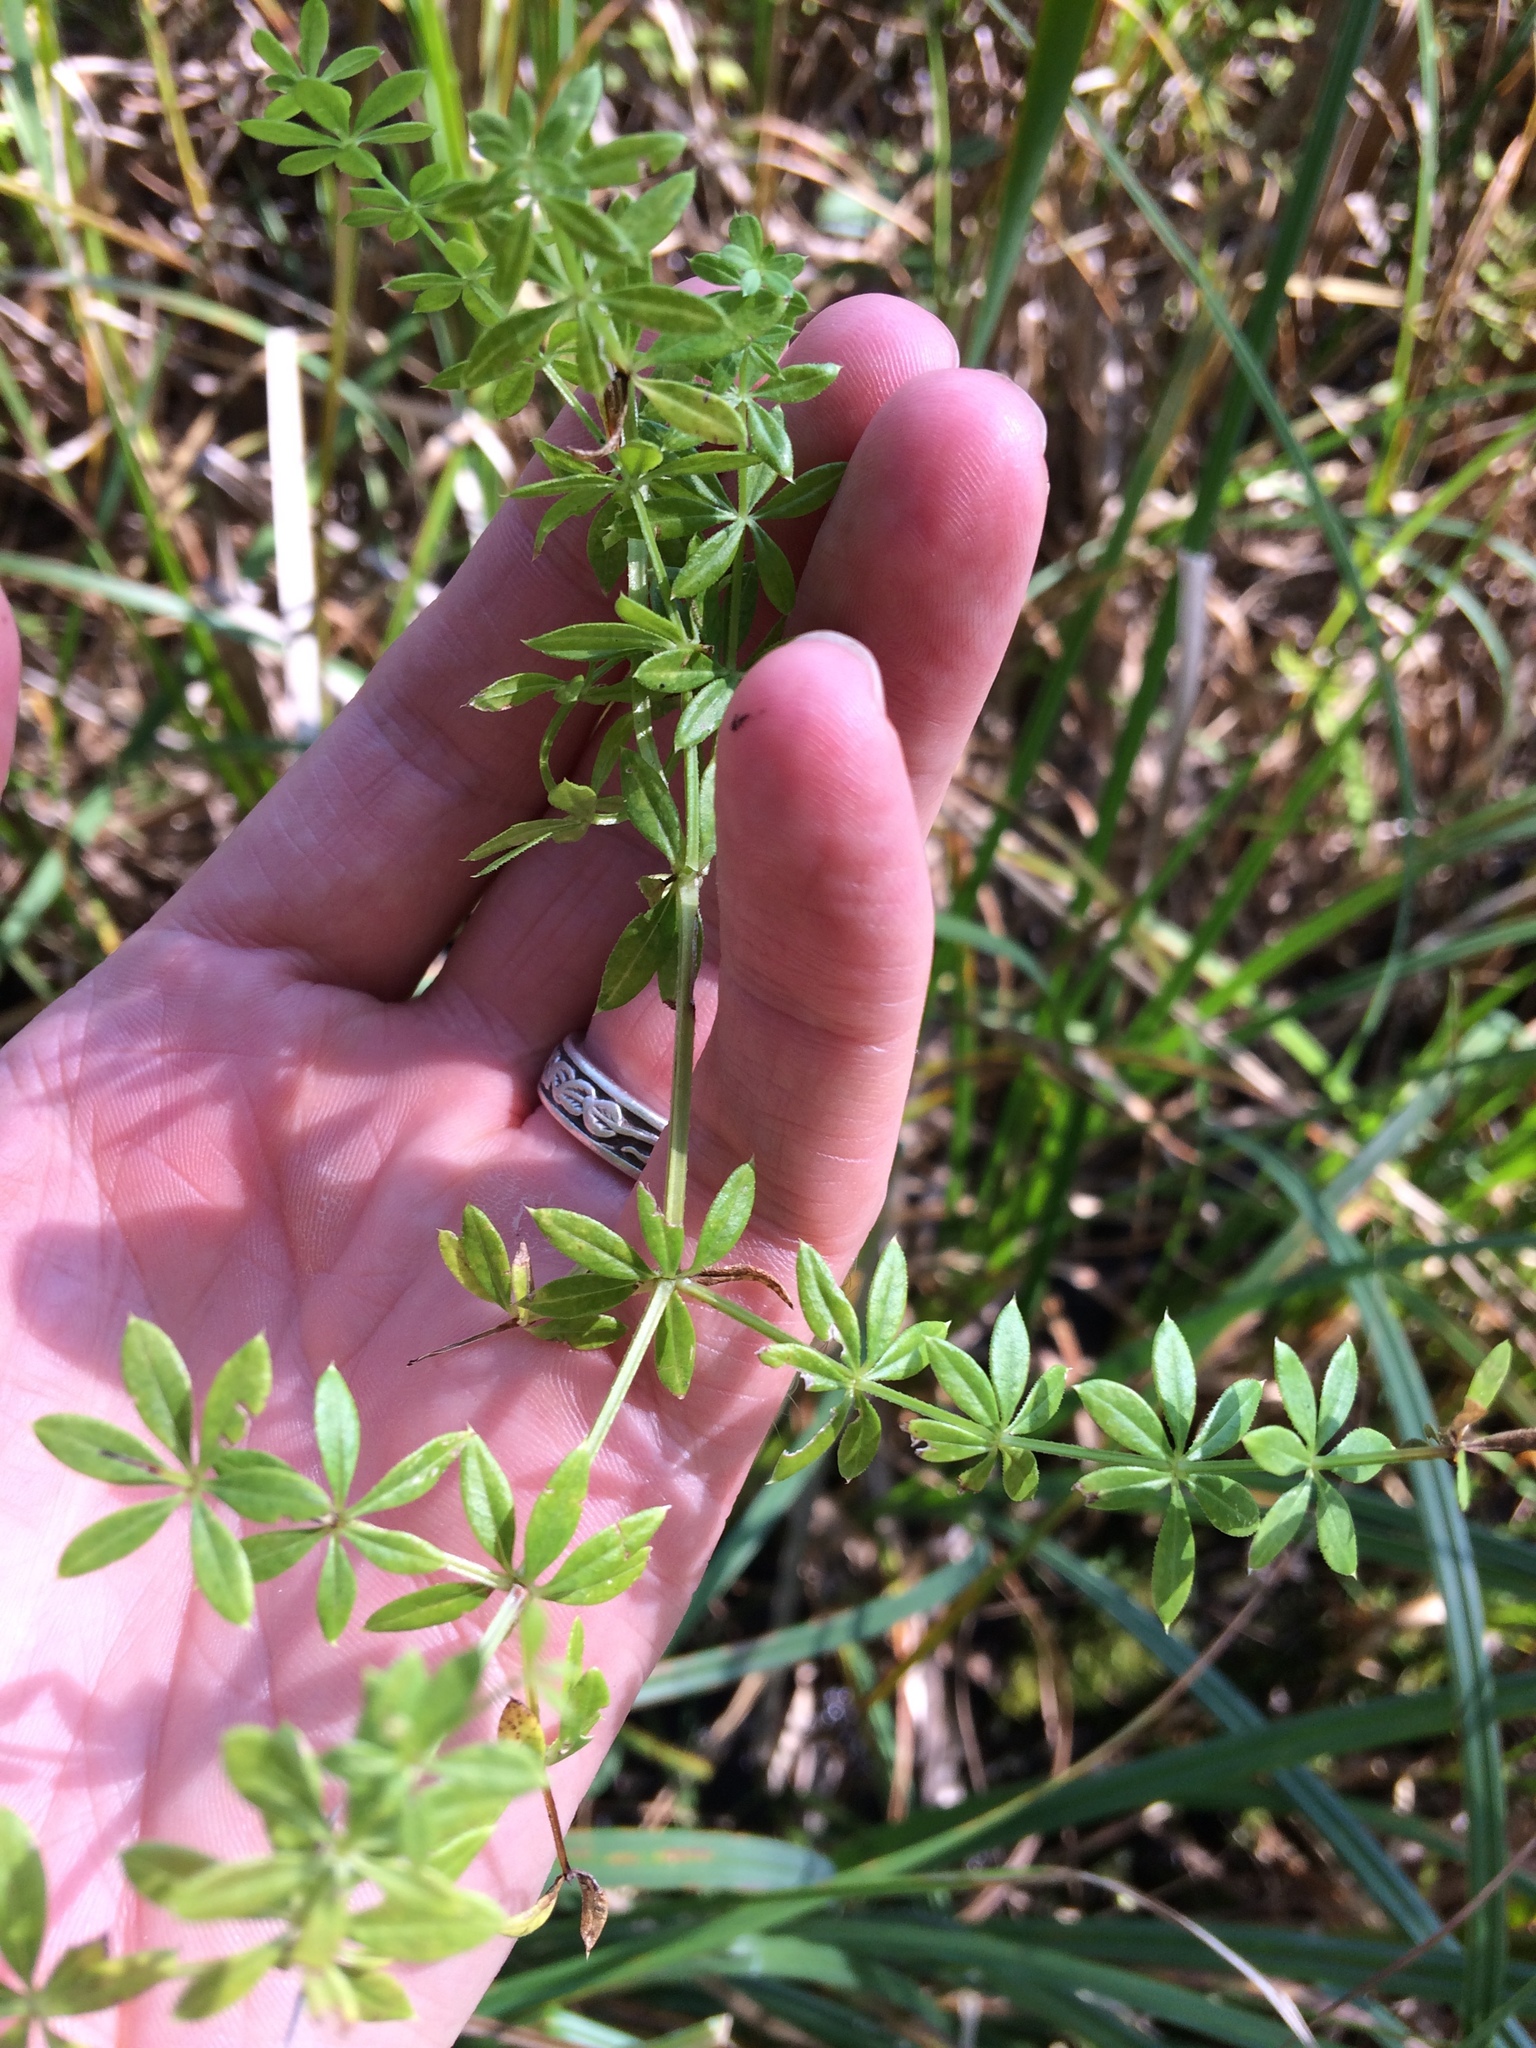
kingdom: Plantae
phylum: Tracheophyta
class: Magnoliopsida
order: Gentianales
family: Rubiaceae
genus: Galium
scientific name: Galium asprellum
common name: Rough bedstraw
